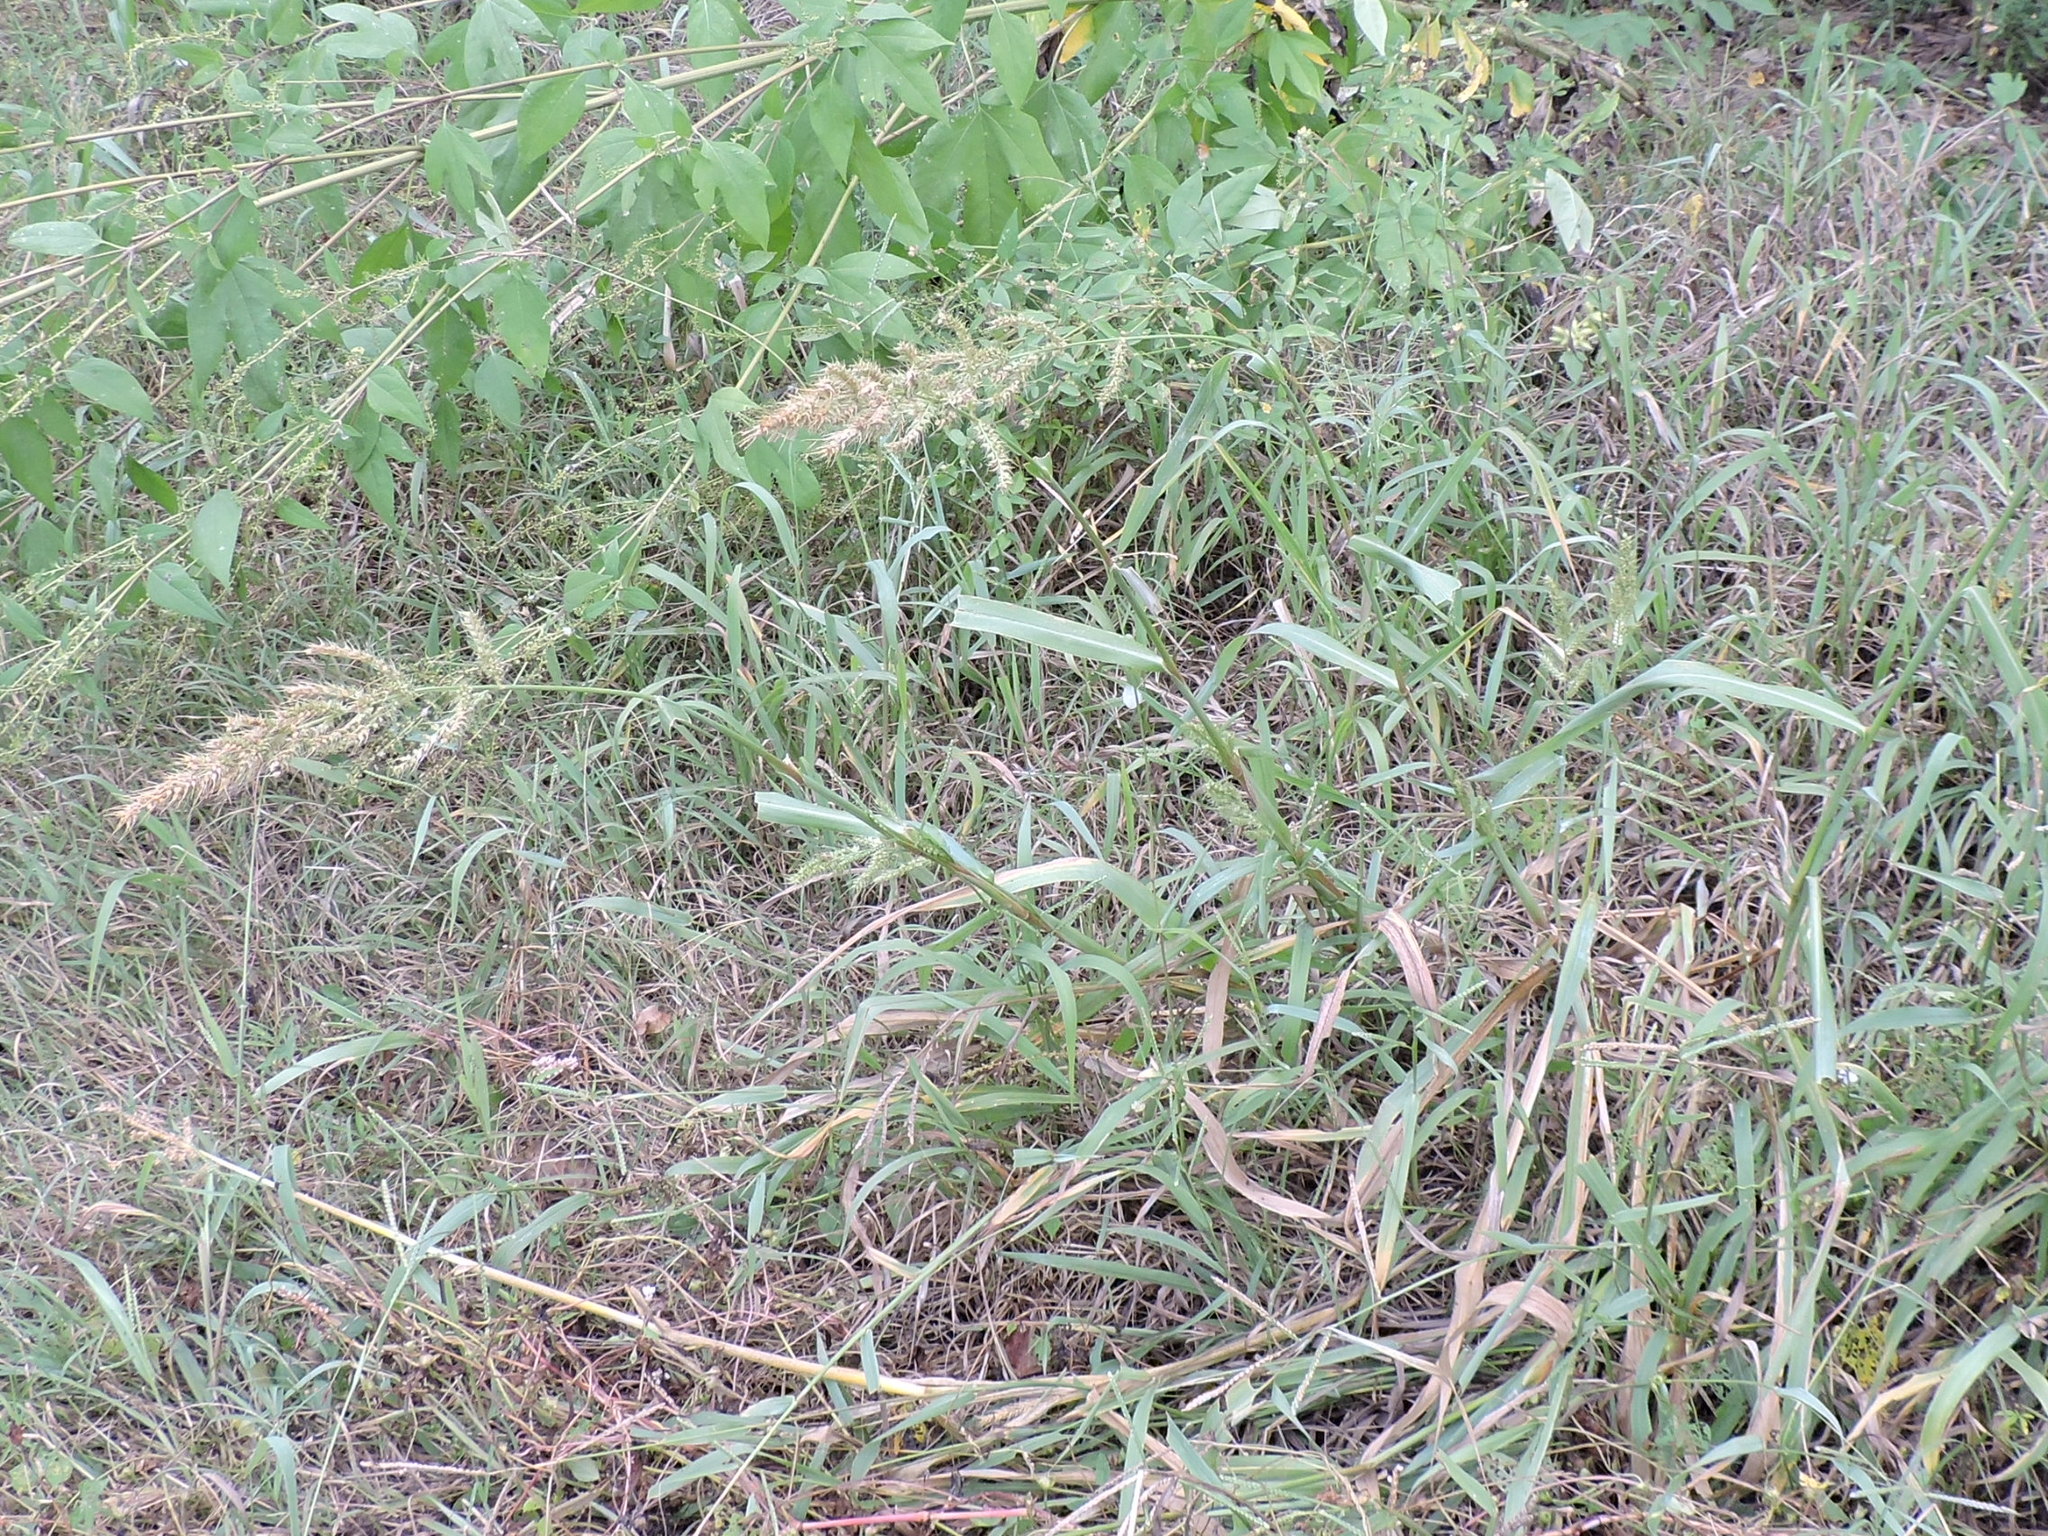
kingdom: Plantae
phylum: Tracheophyta
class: Liliopsida
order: Poales
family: Poaceae
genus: Echinochloa
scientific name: Echinochloa crus-galli
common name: Cockspur
